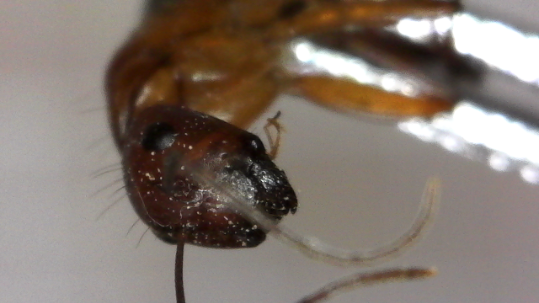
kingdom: Animalia
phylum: Arthropoda
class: Insecta
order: Hymenoptera
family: Formicidae
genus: Camponotus
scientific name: Camponotus castaneus
